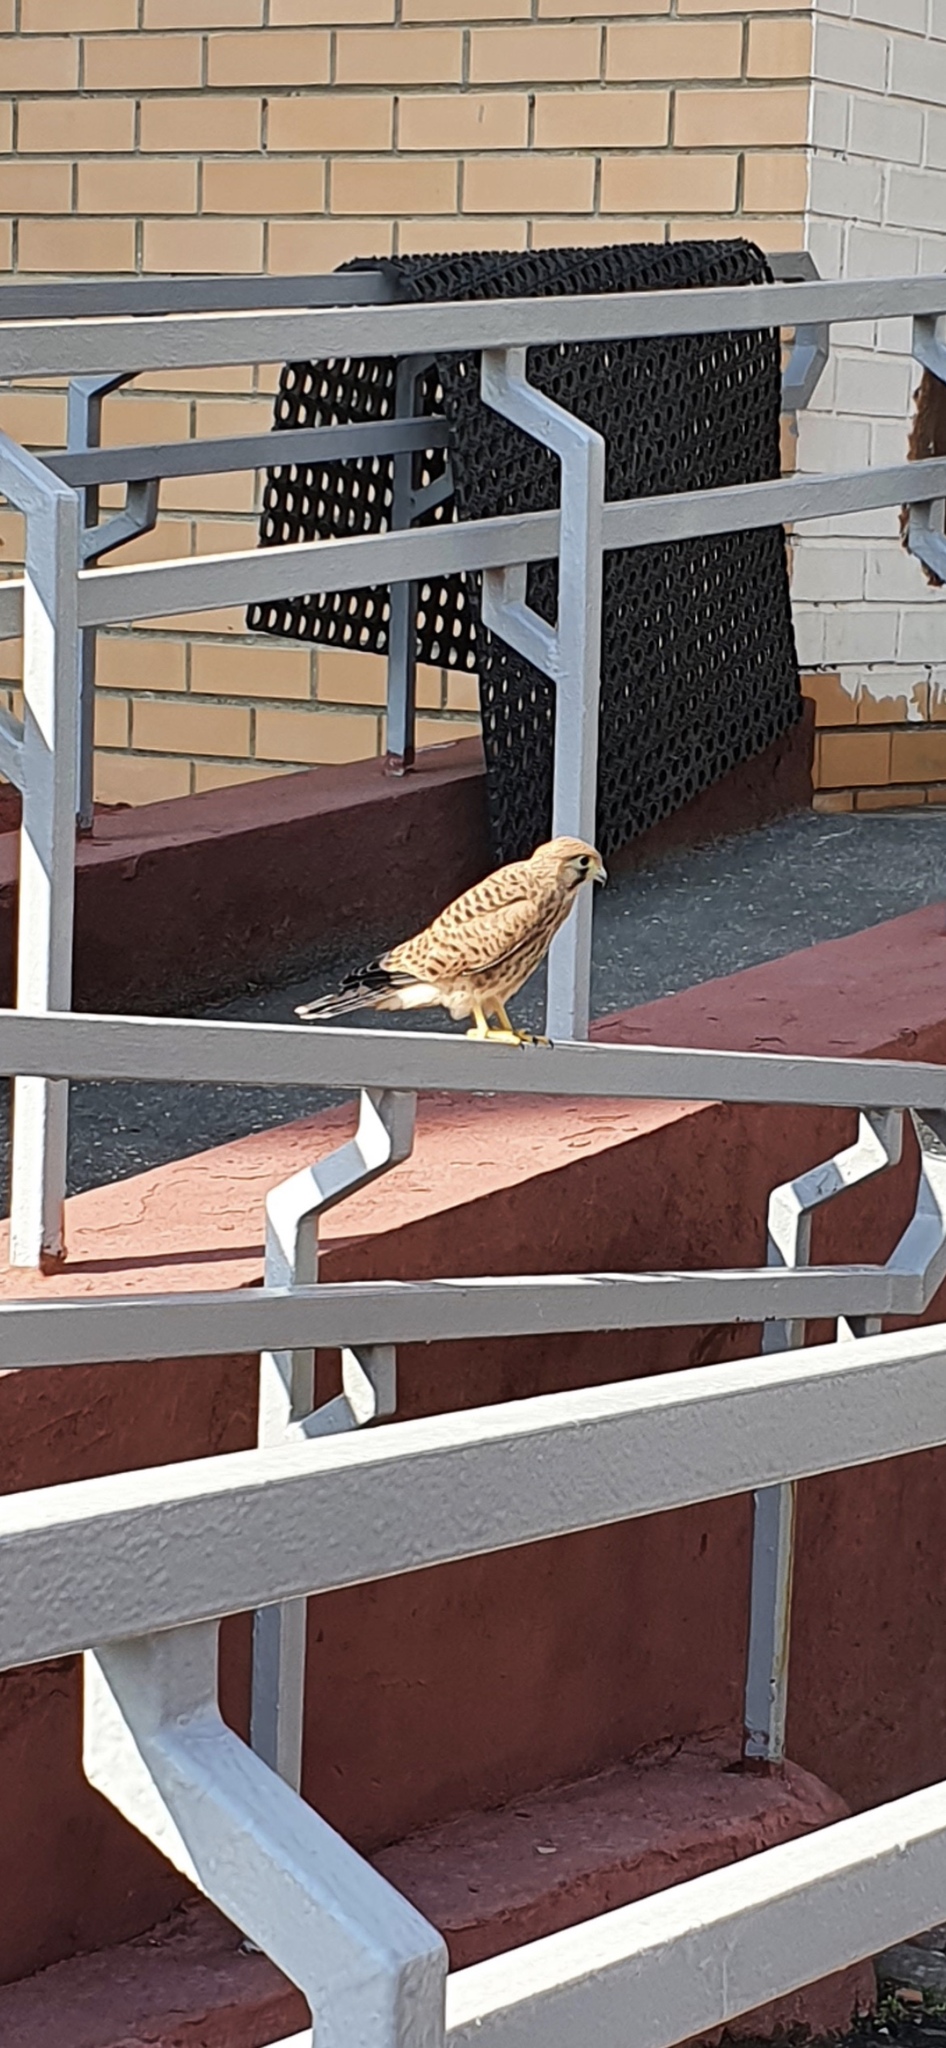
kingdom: Animalia
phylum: Chordata
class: Aves
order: Falconiformes
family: Falconidae
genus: Falco
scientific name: Falco tinnunculus
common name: Common kestrel
